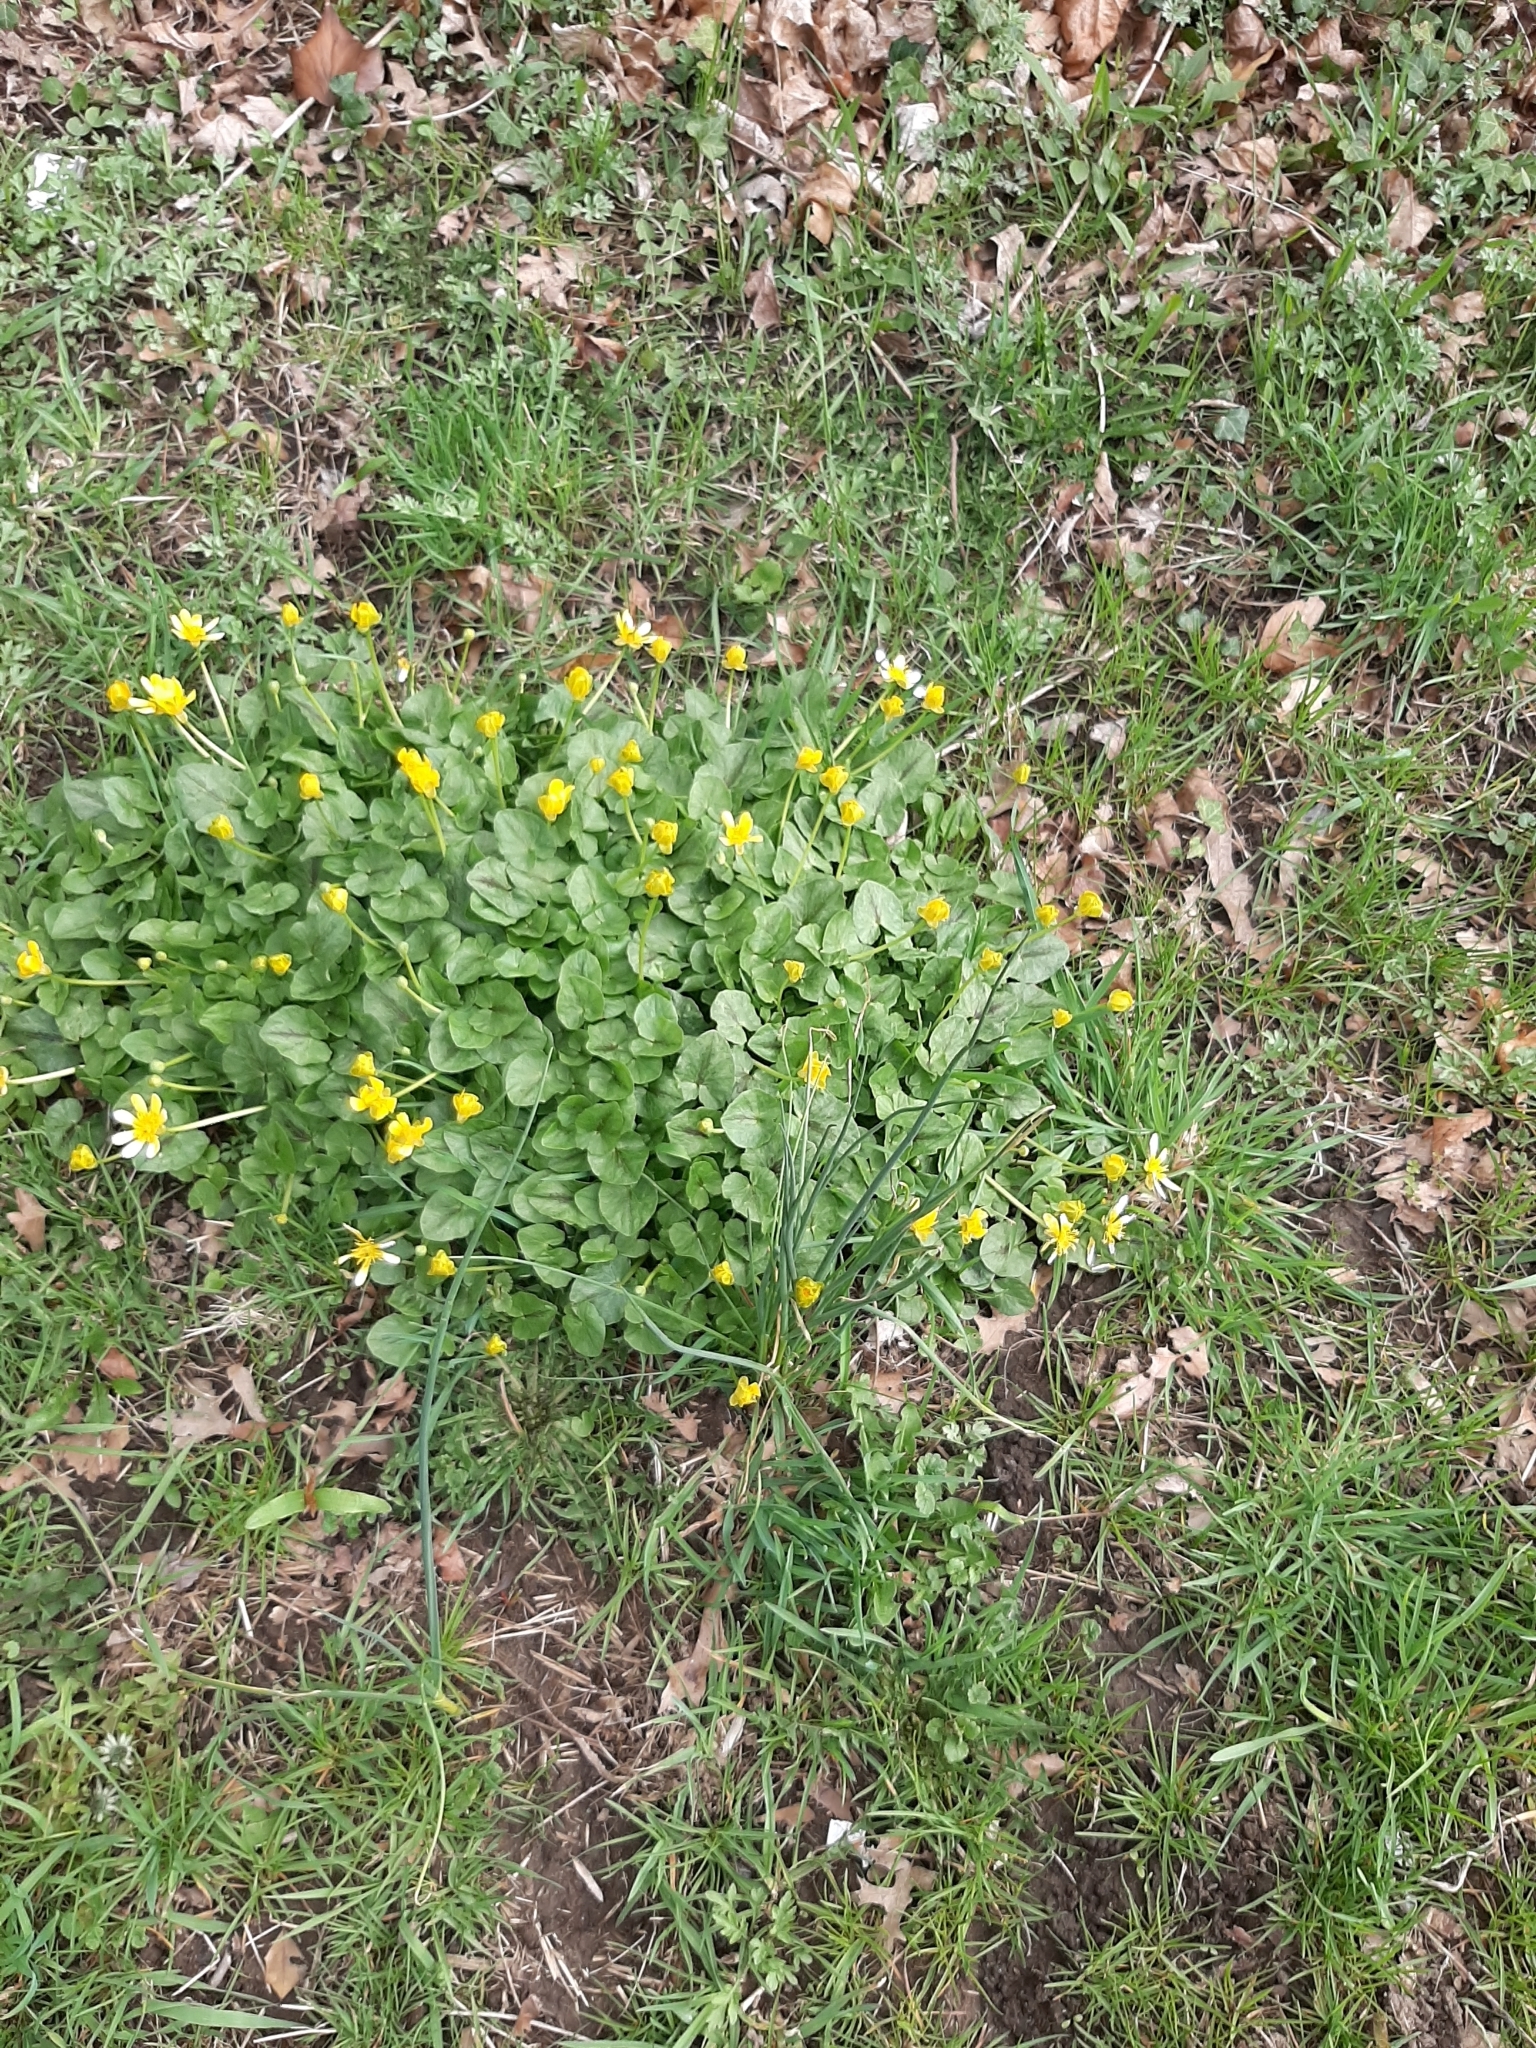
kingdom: Plantae
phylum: Tracheophyta
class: Magnoliopsida
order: Ranunculales
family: Ranunculaceae
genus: Ficaria
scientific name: Ficaria verna
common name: Lesser celandine
